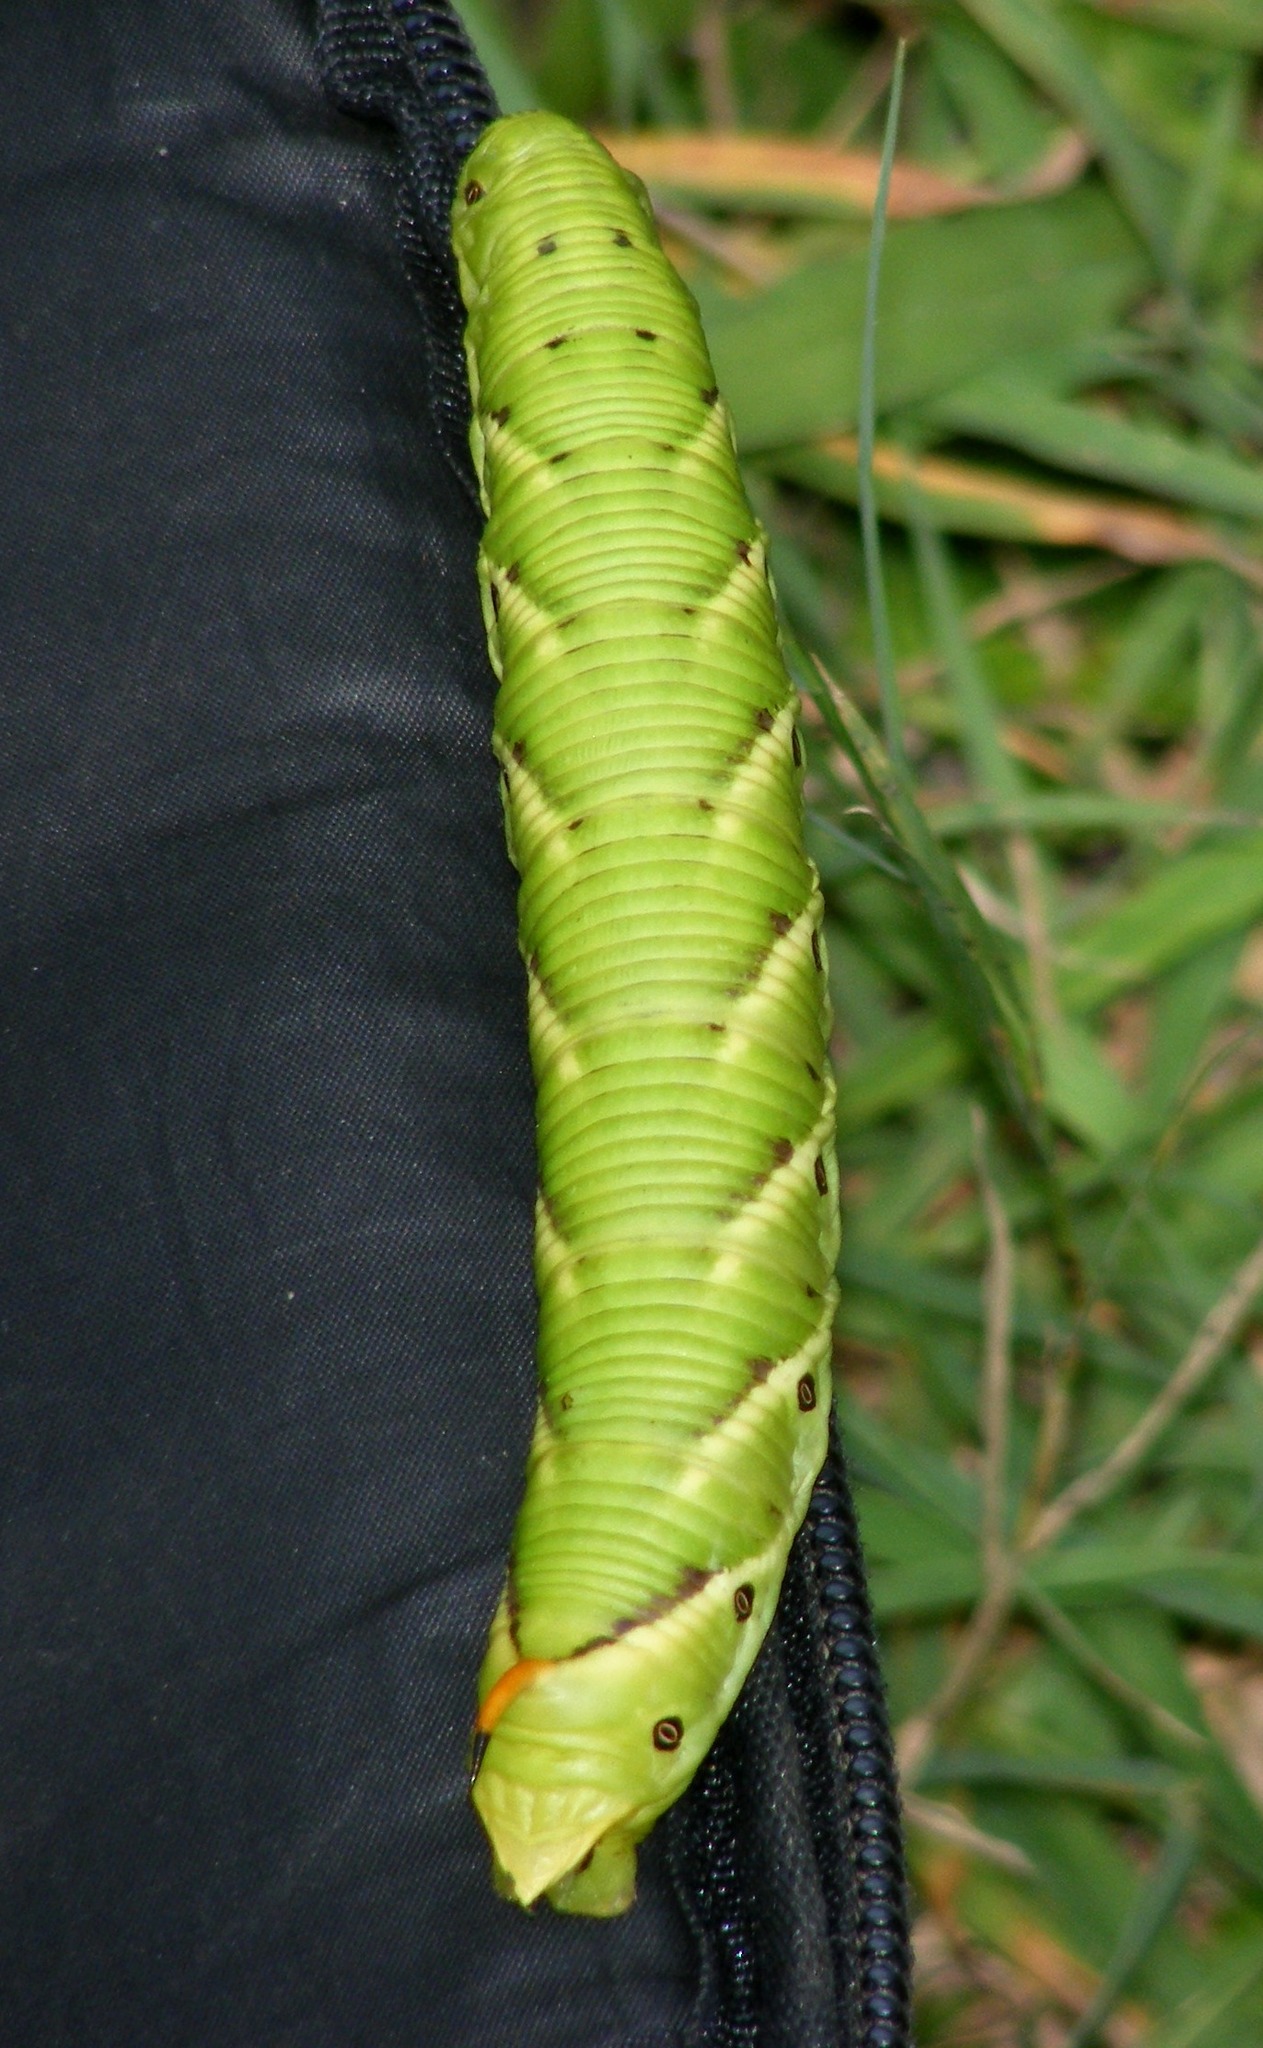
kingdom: Animalia
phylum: Arthropoda
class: Insecta
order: Lepidoptera
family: Sphingidae
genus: Agrius
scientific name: Agrius convolvuli
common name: Convolvulus hawkmoth
